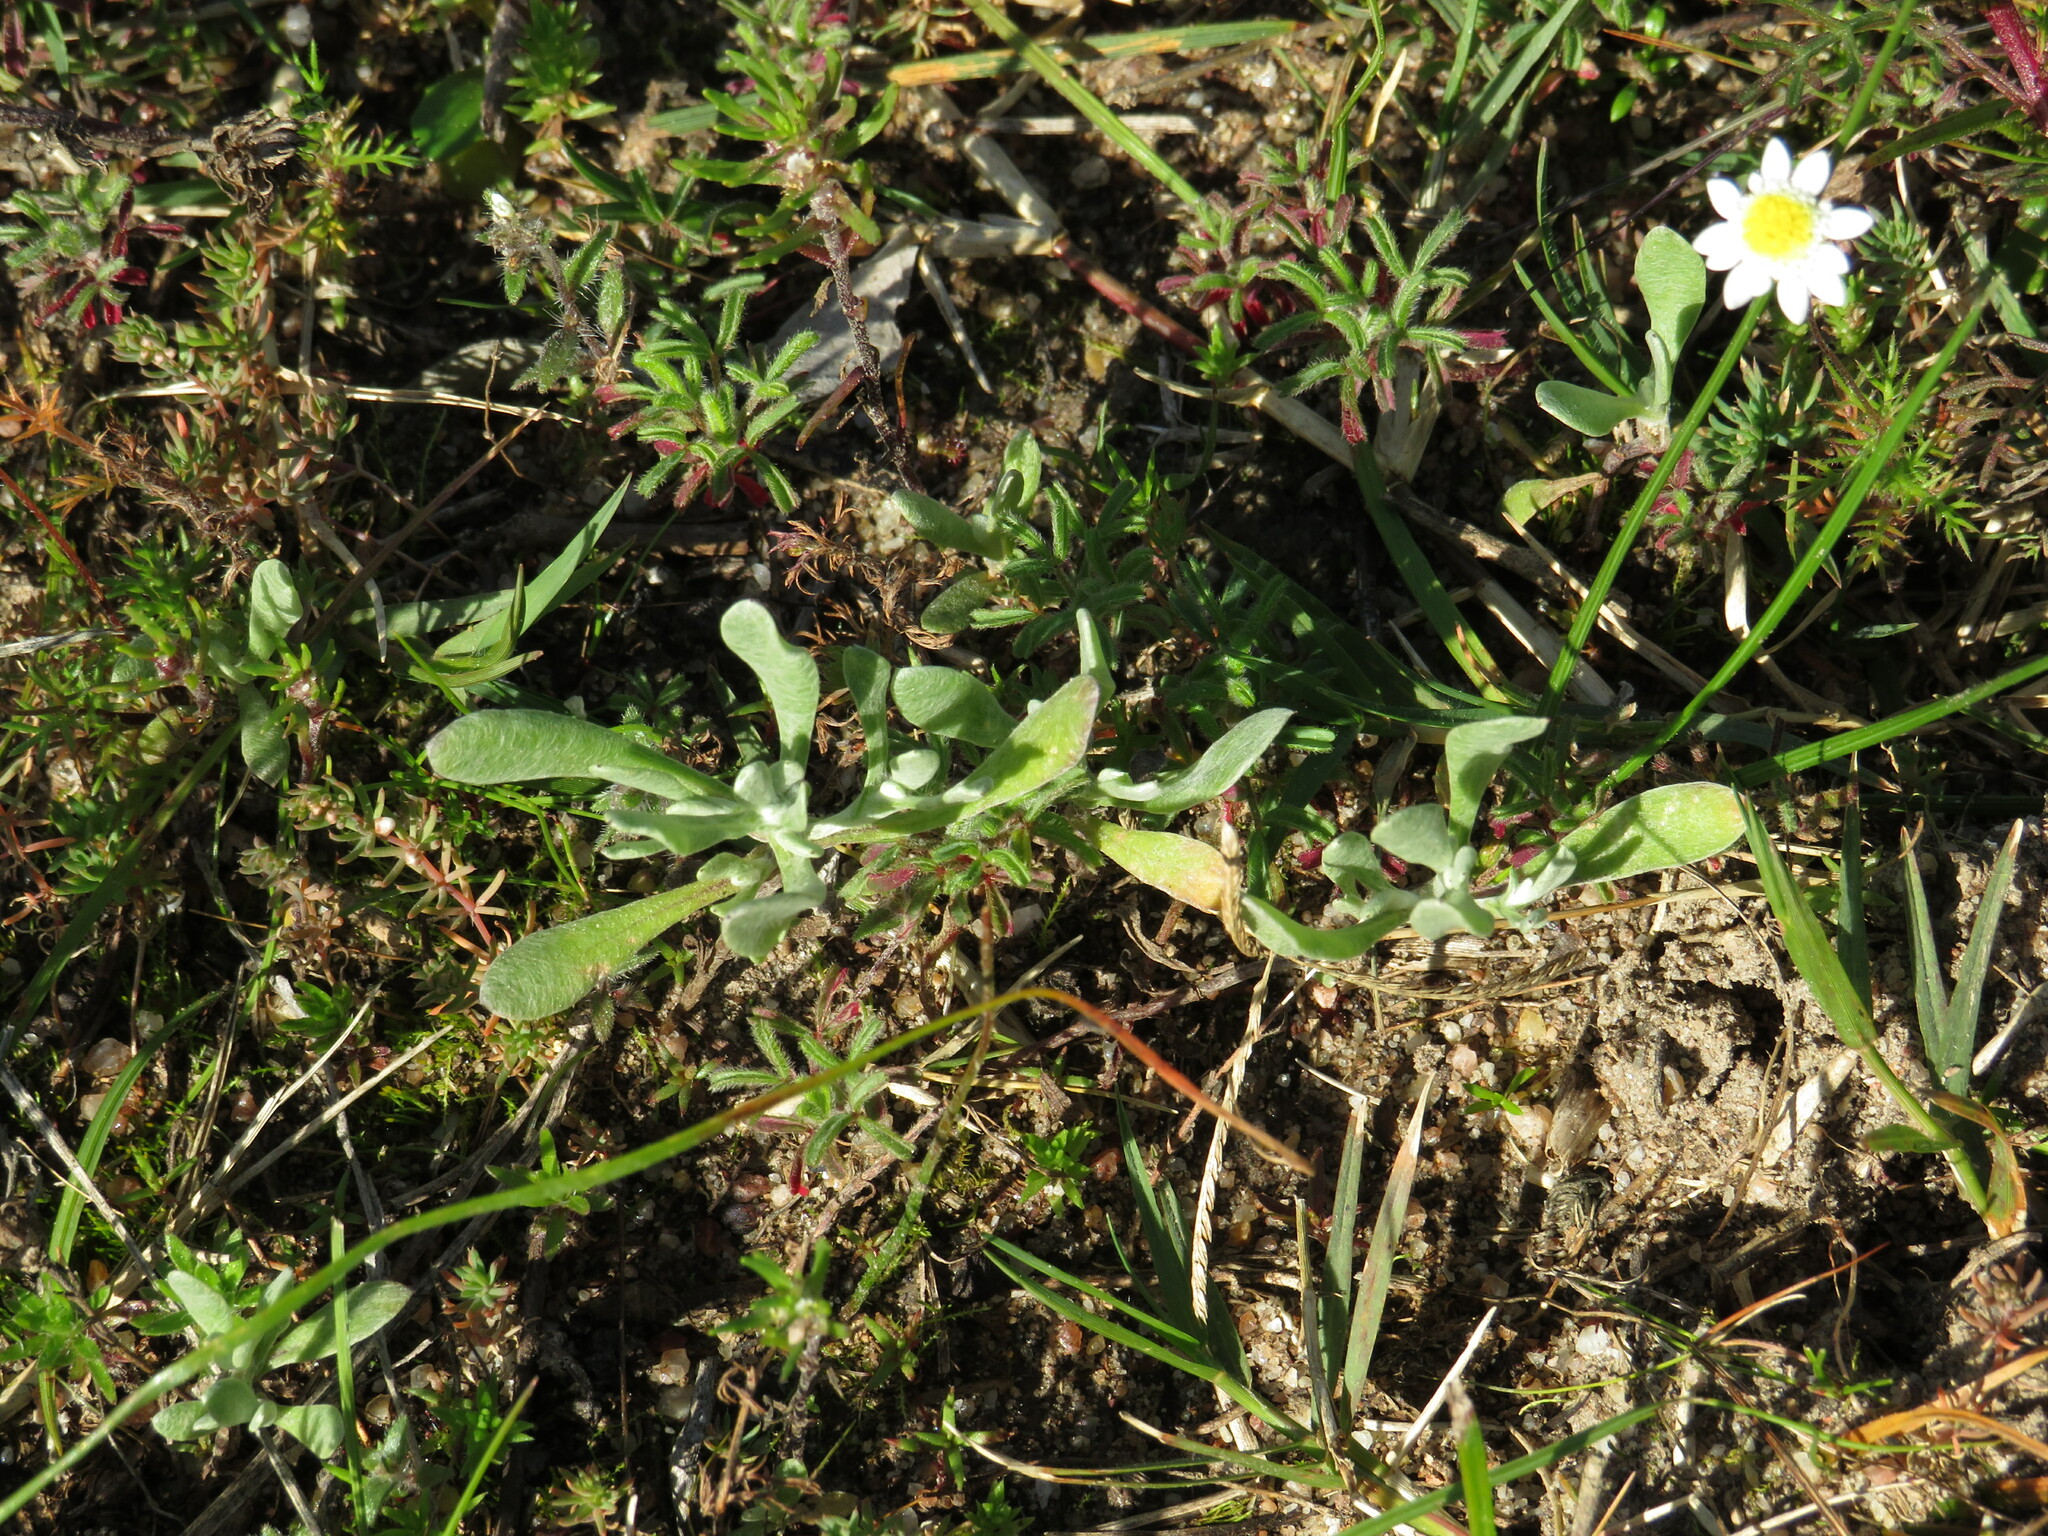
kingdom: Plantae
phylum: Tracheophyta
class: Magnoliopsida
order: Asterales
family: Asteraceae
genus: Vellereophyton
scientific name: Vellereophyton dealbatum
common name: White-cudweed
